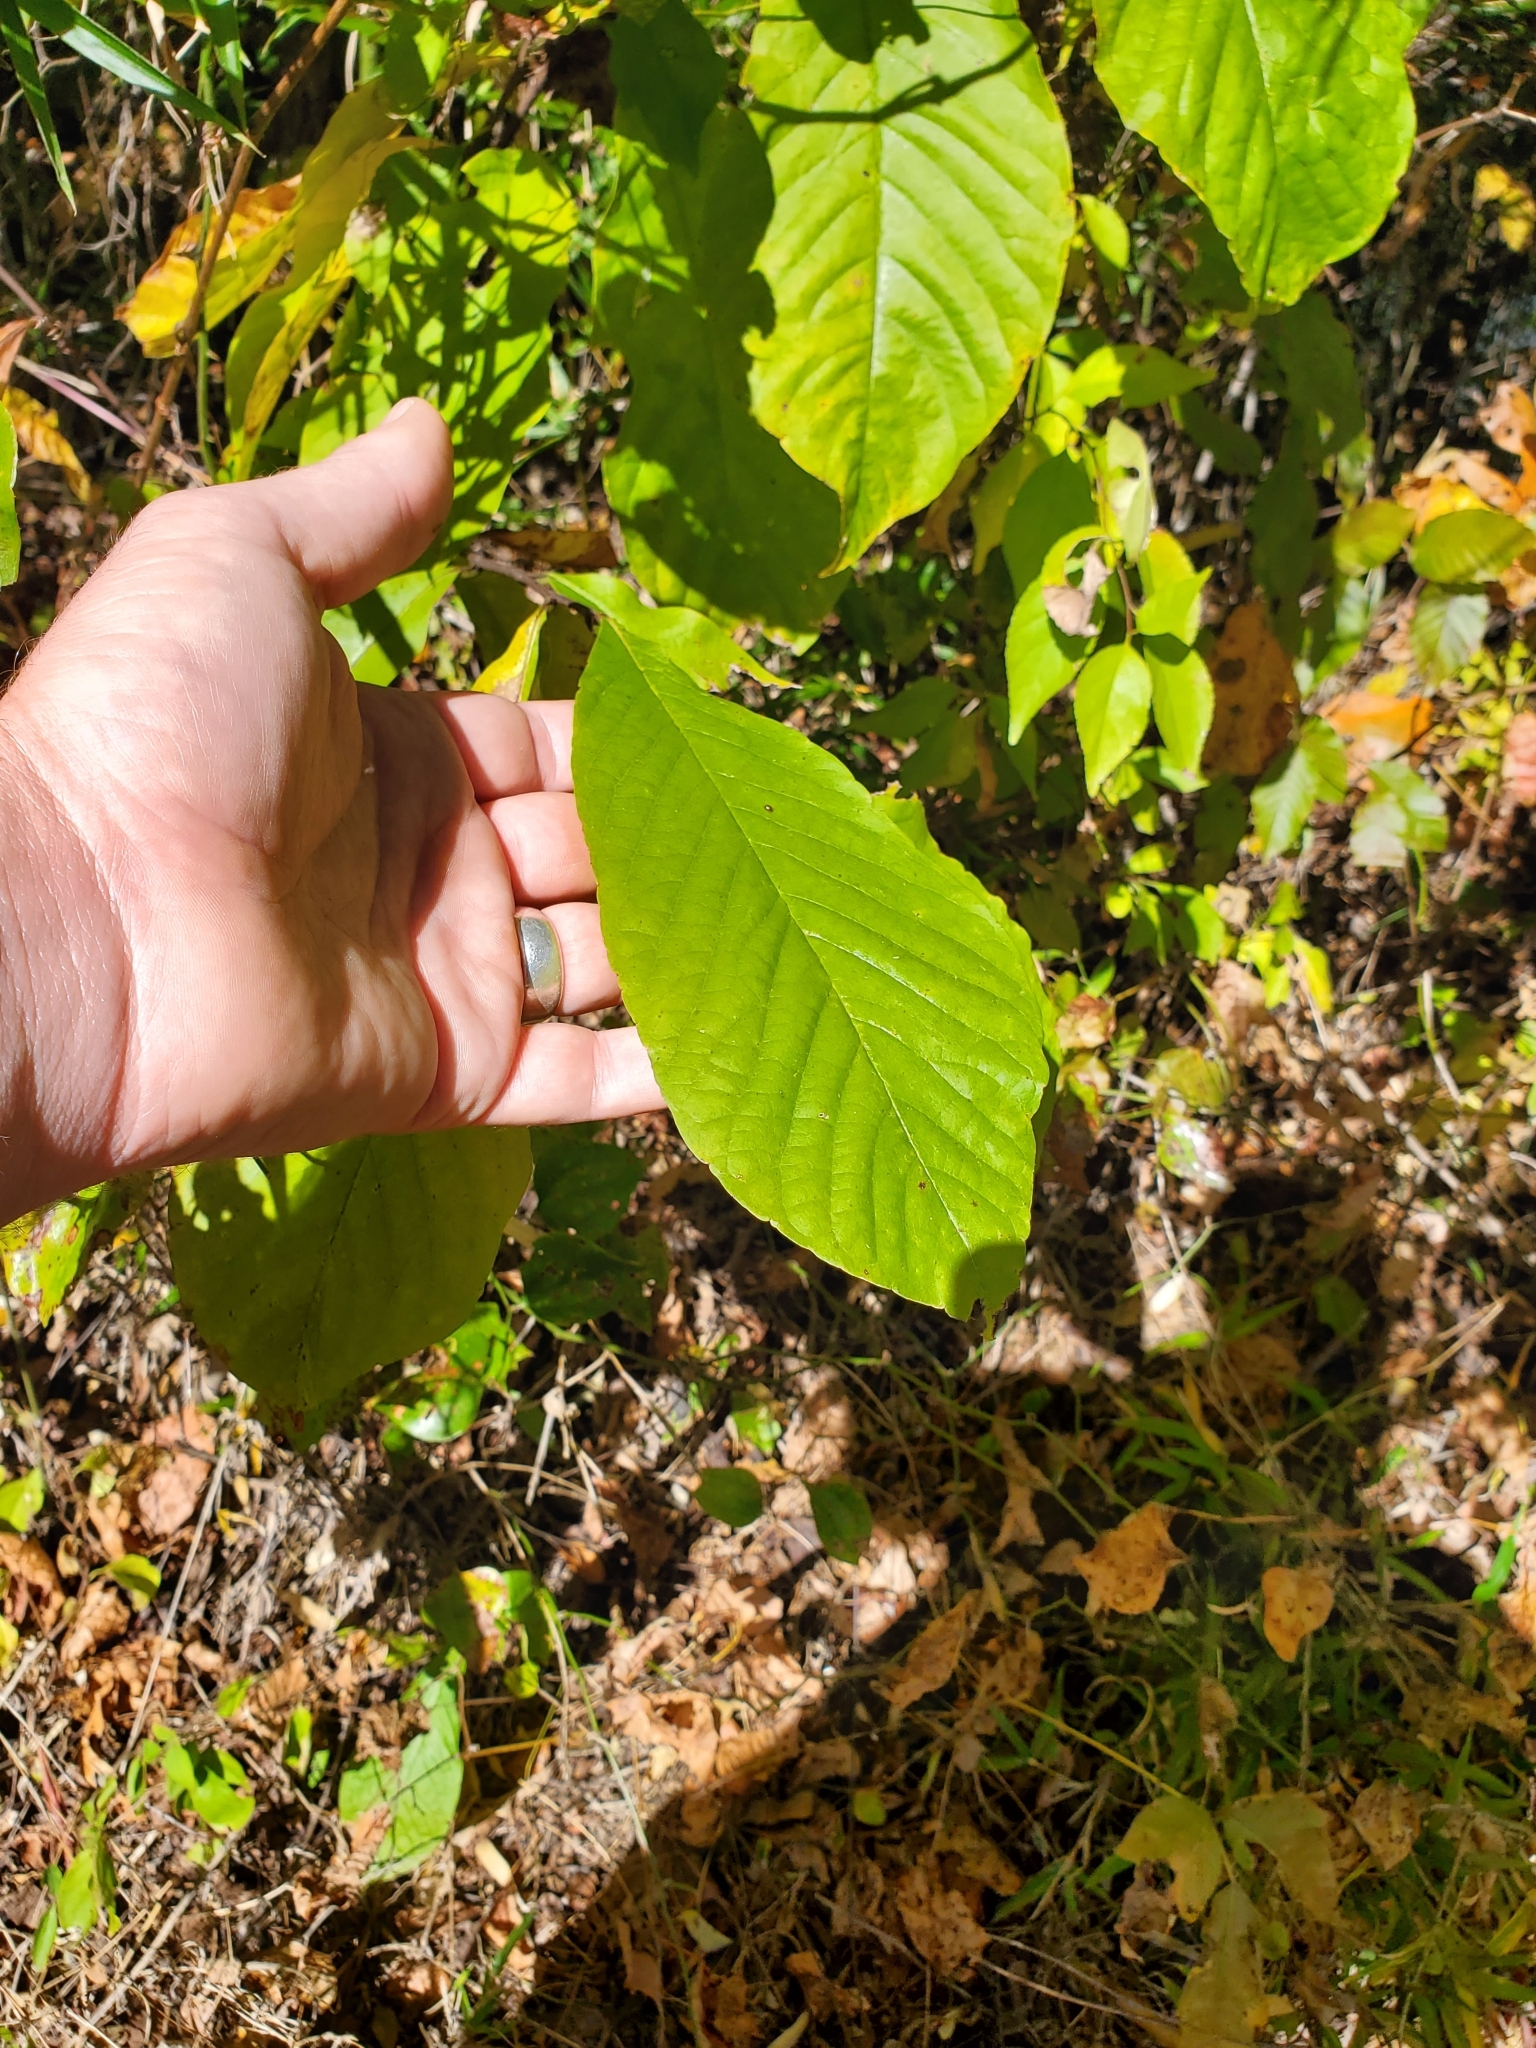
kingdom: Plantae
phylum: Tracheophyta
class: Magnoliopsida
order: Magnoliales
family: Annonaceae
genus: Asimina
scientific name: Asimina triloba
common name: Dog-banana
